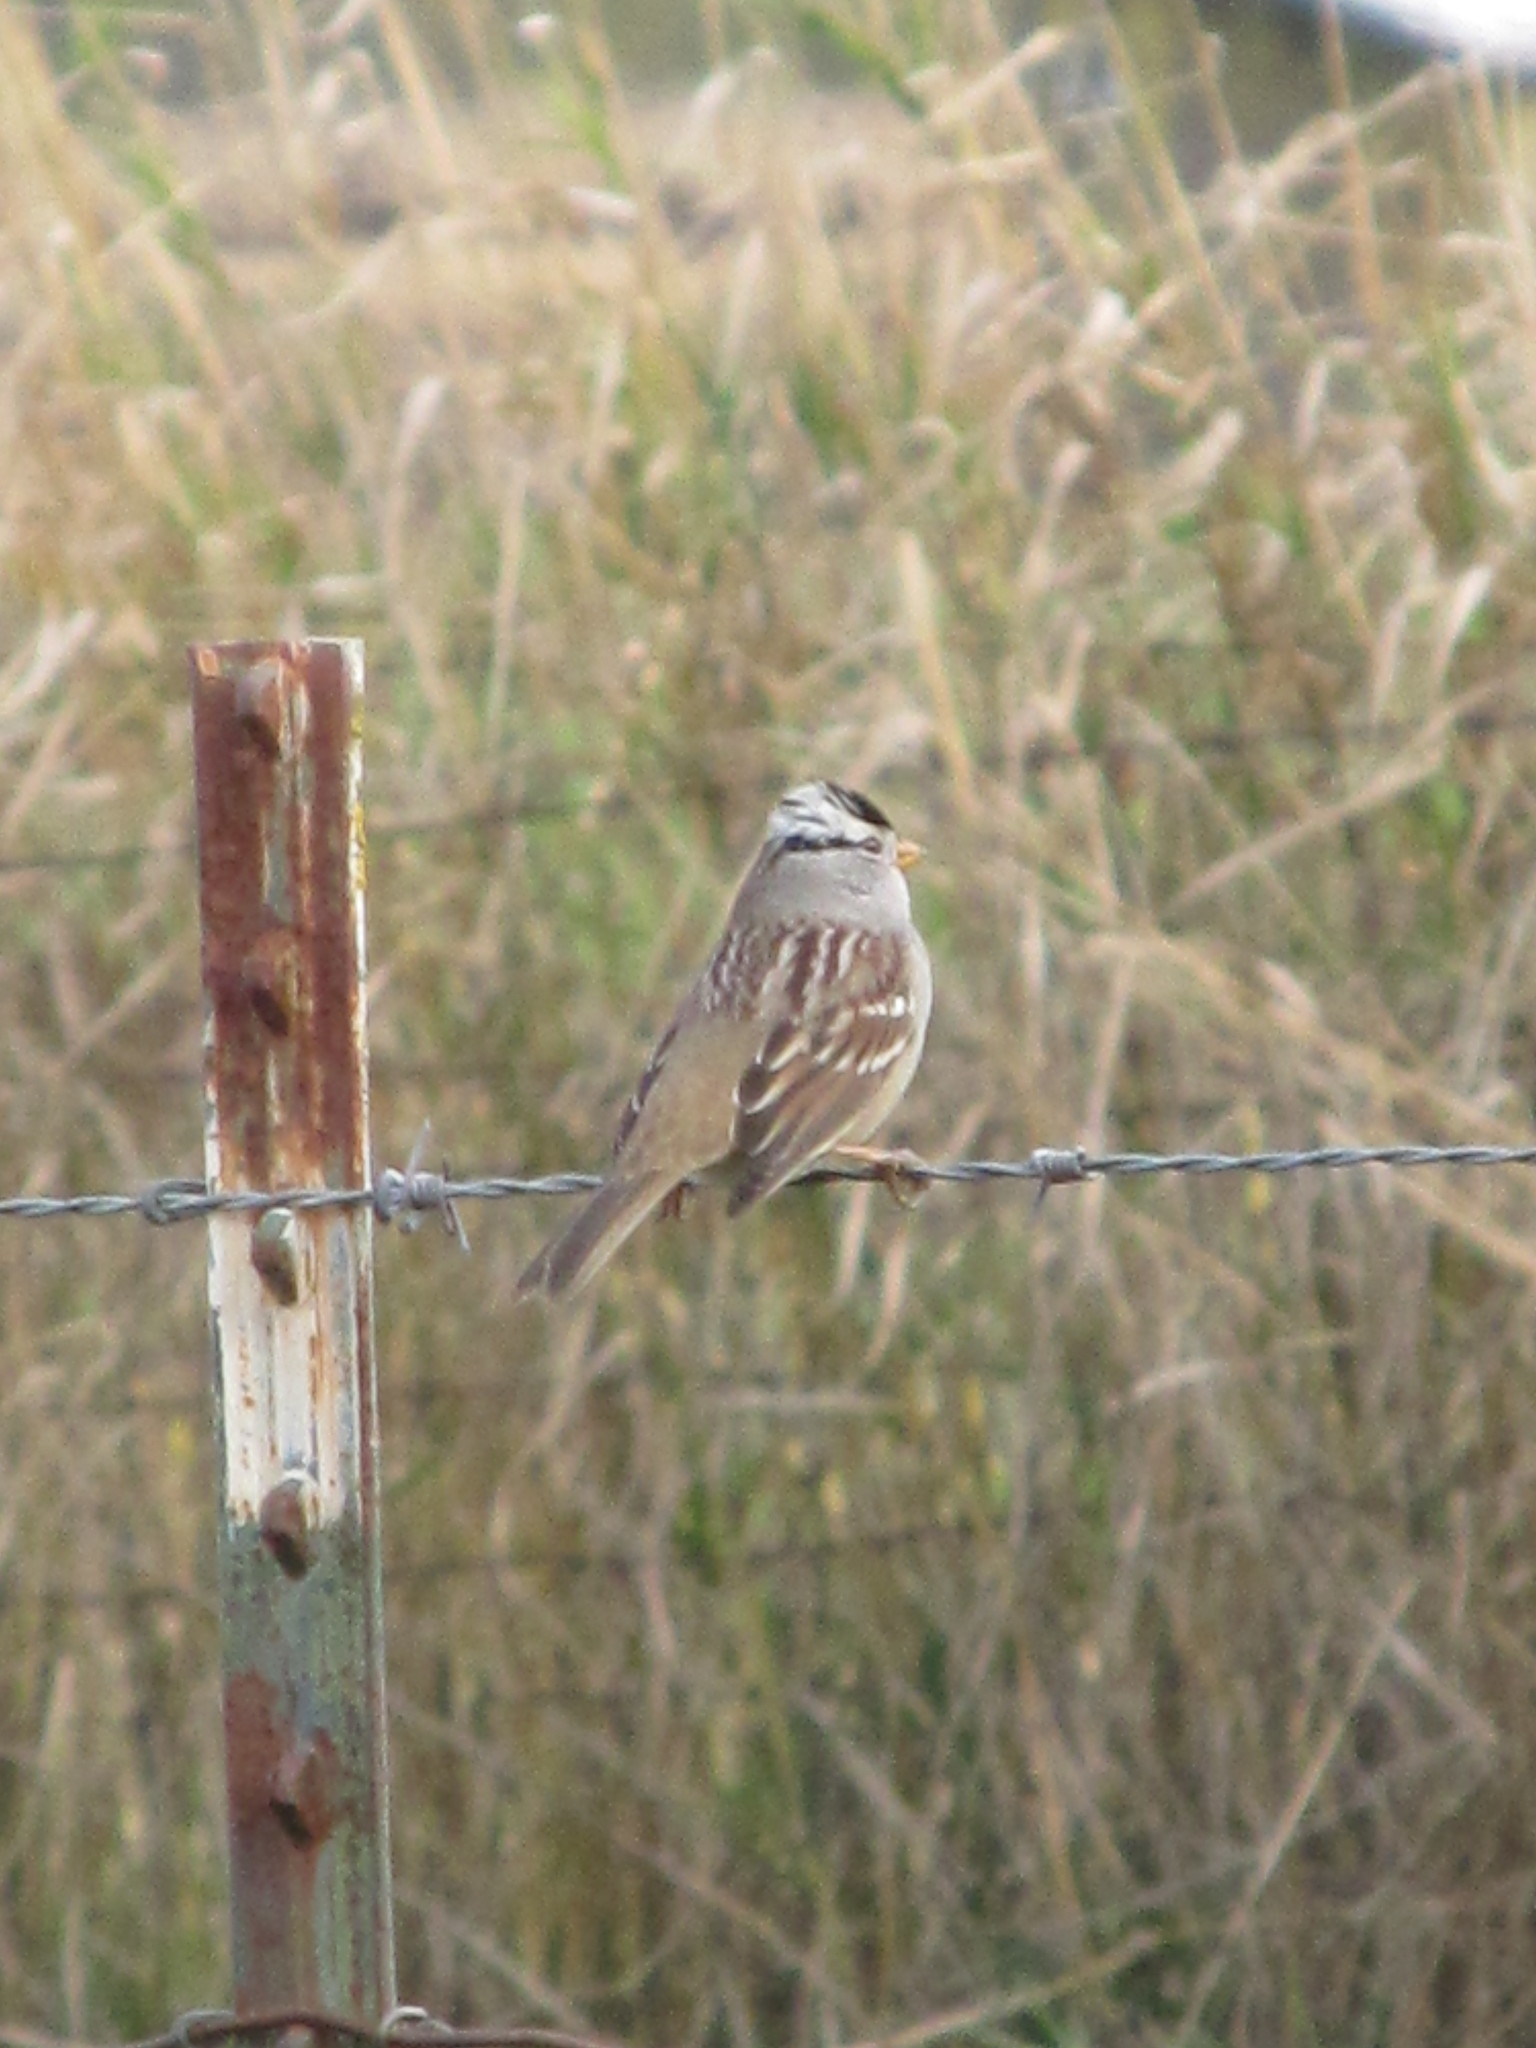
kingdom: Animalia
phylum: Chordata
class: Aves
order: Passeriformes
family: Passerellidae
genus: Zonotrichia
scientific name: Zonotrichia leucophrys
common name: White-crowned sparrow
